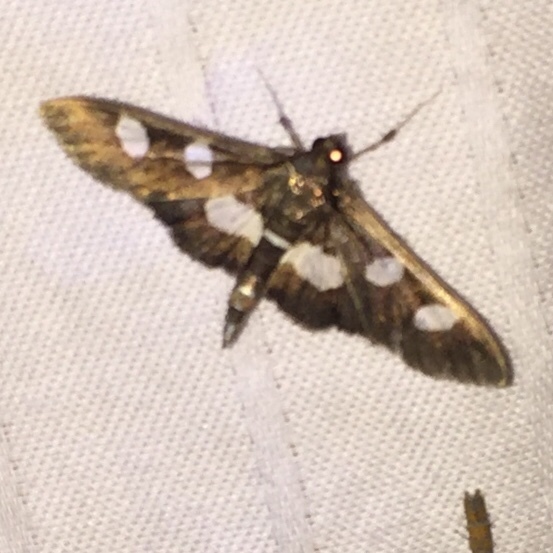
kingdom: Animalia
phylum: Arthropoda
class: Insecta
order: Lepidoptera
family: Crambidae
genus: Desmia
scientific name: Desmia
